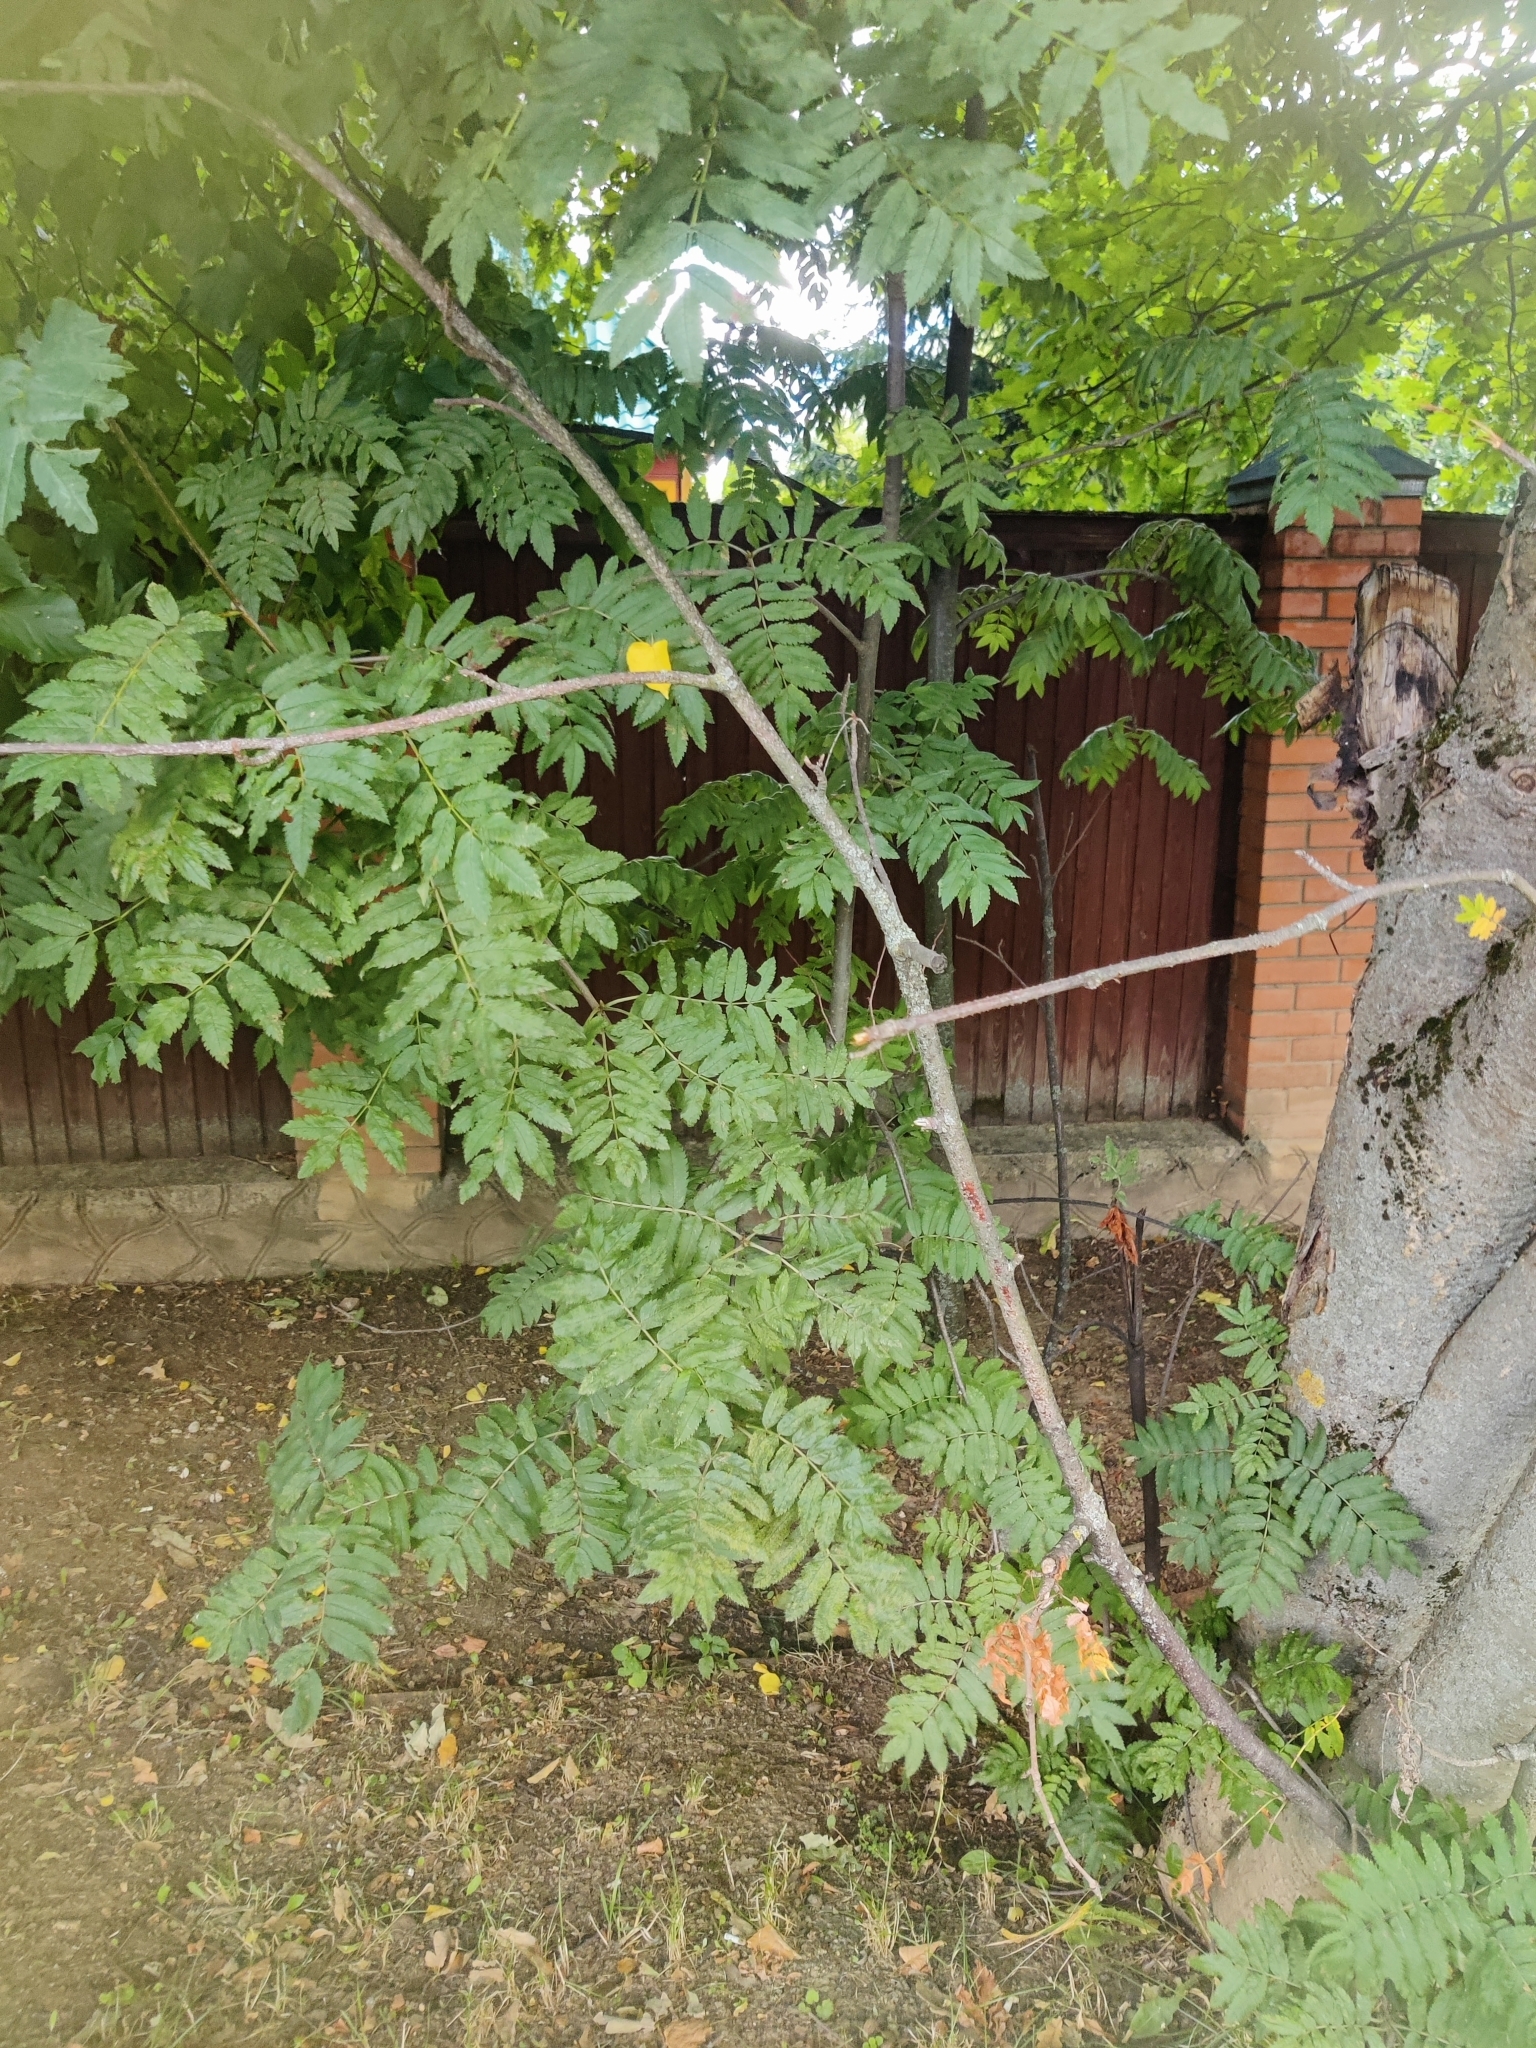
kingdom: Plantae
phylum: Tracheophyta
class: Magnoliopsida
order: Rosales
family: Rosaceae
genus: Sorbus
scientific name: Sorbus aucuparia
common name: Rowan
